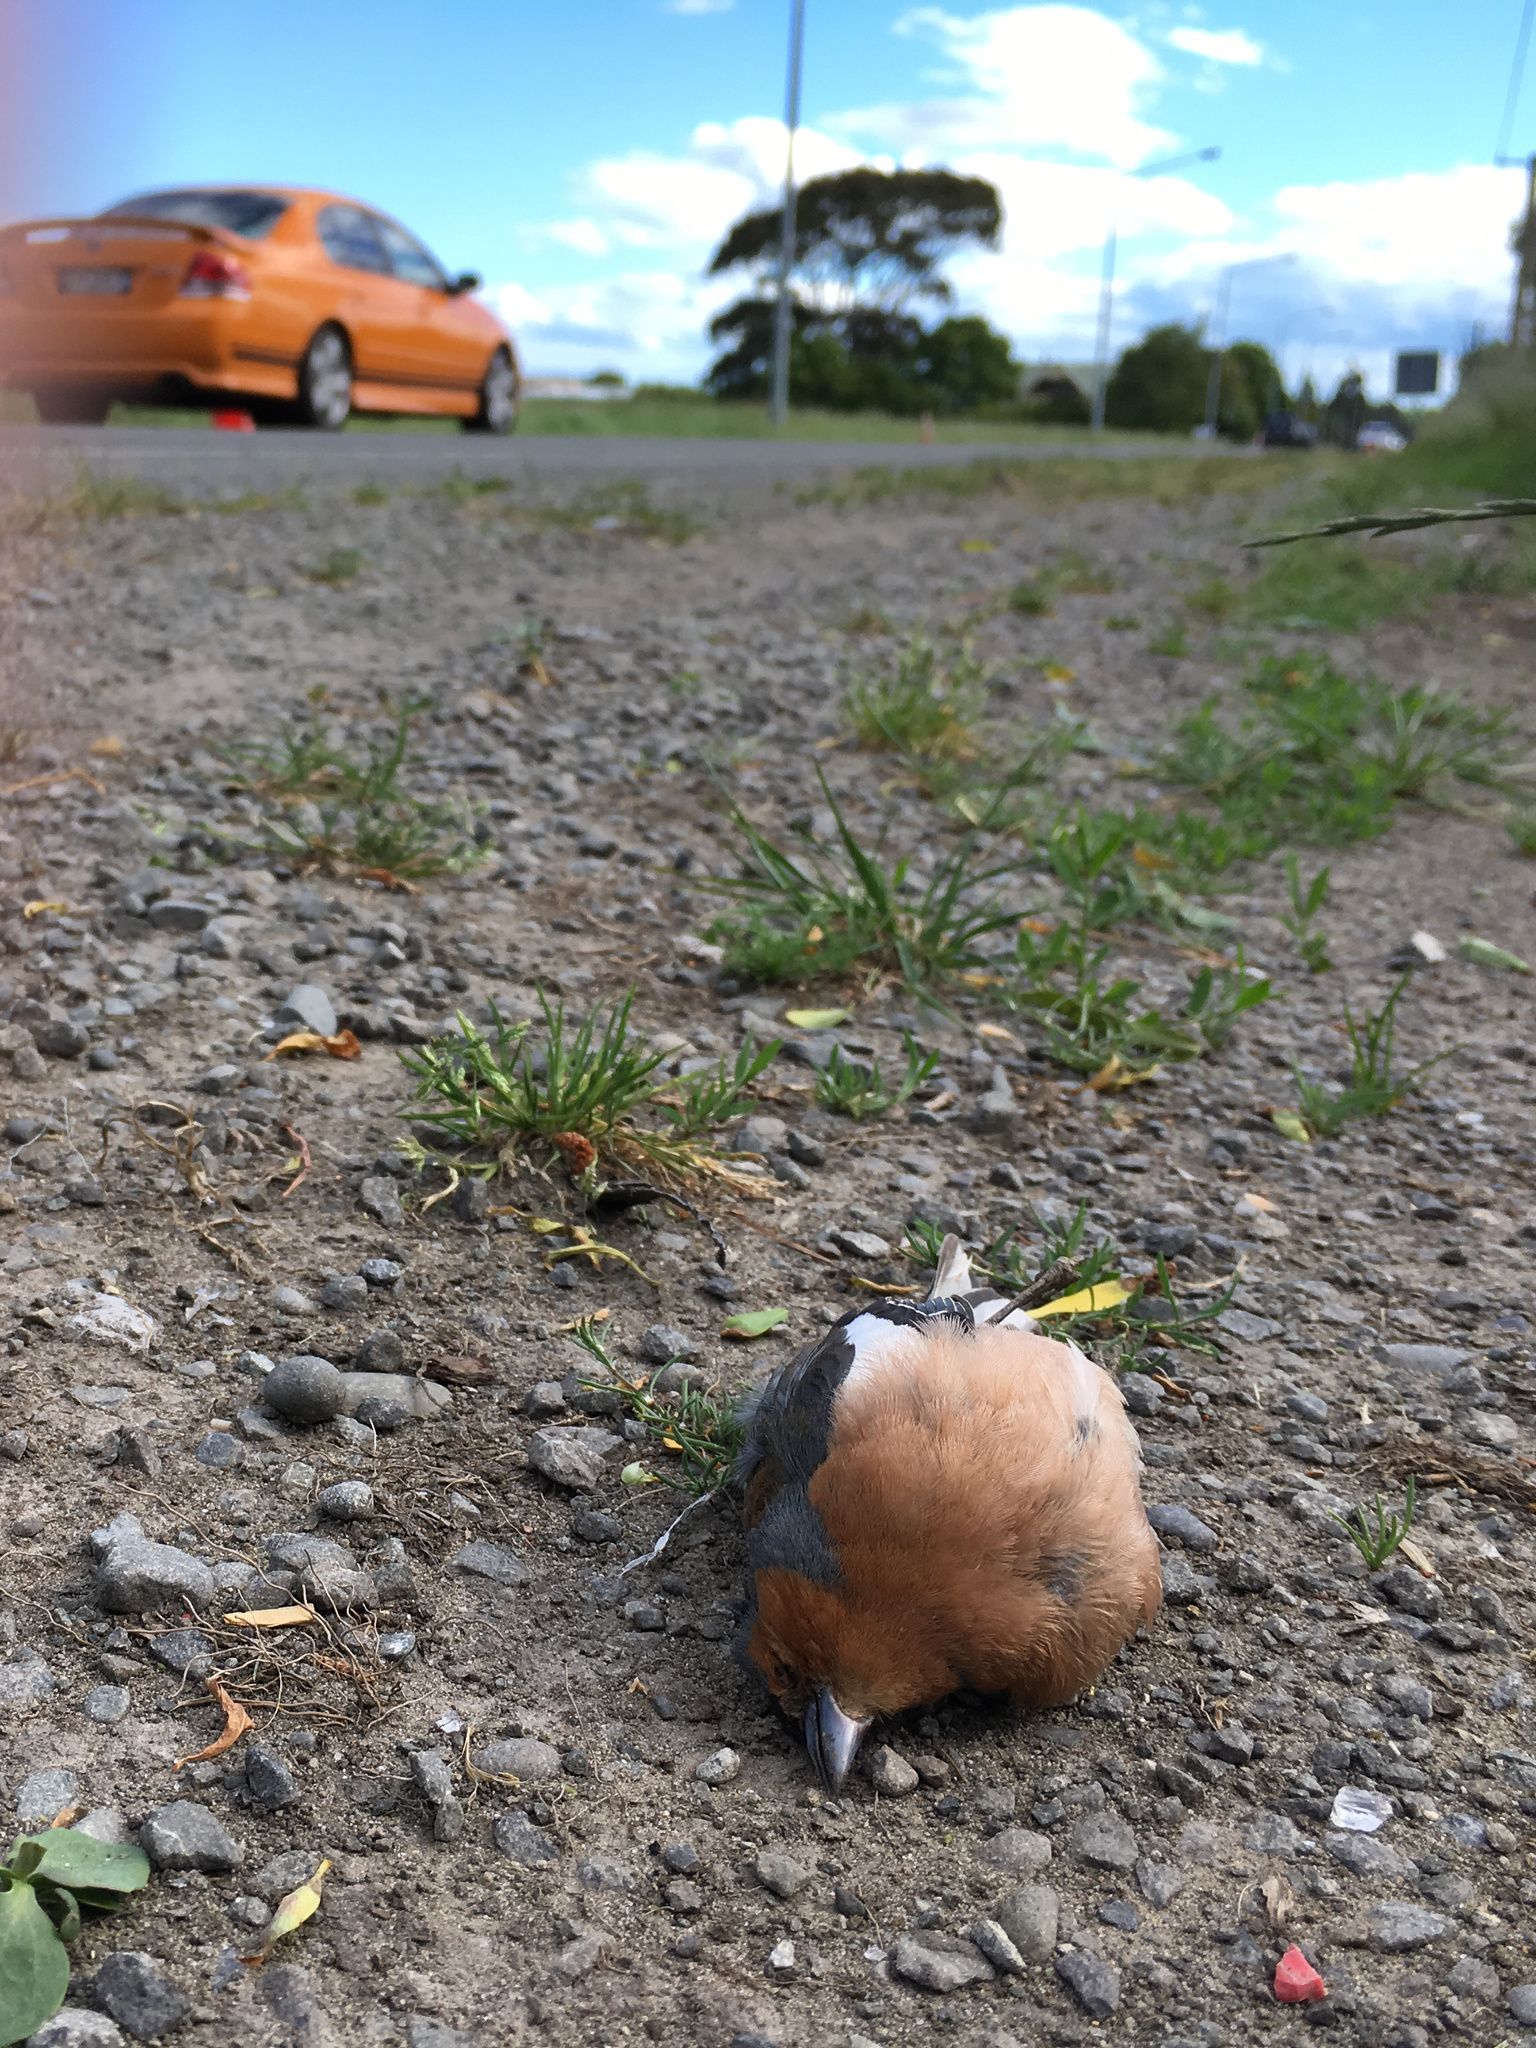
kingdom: Animalia
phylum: Chordata
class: Aves
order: Passeriformes
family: Fringillidae
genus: Fringilla
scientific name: Fringilla coelebs
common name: Common chaffinch
